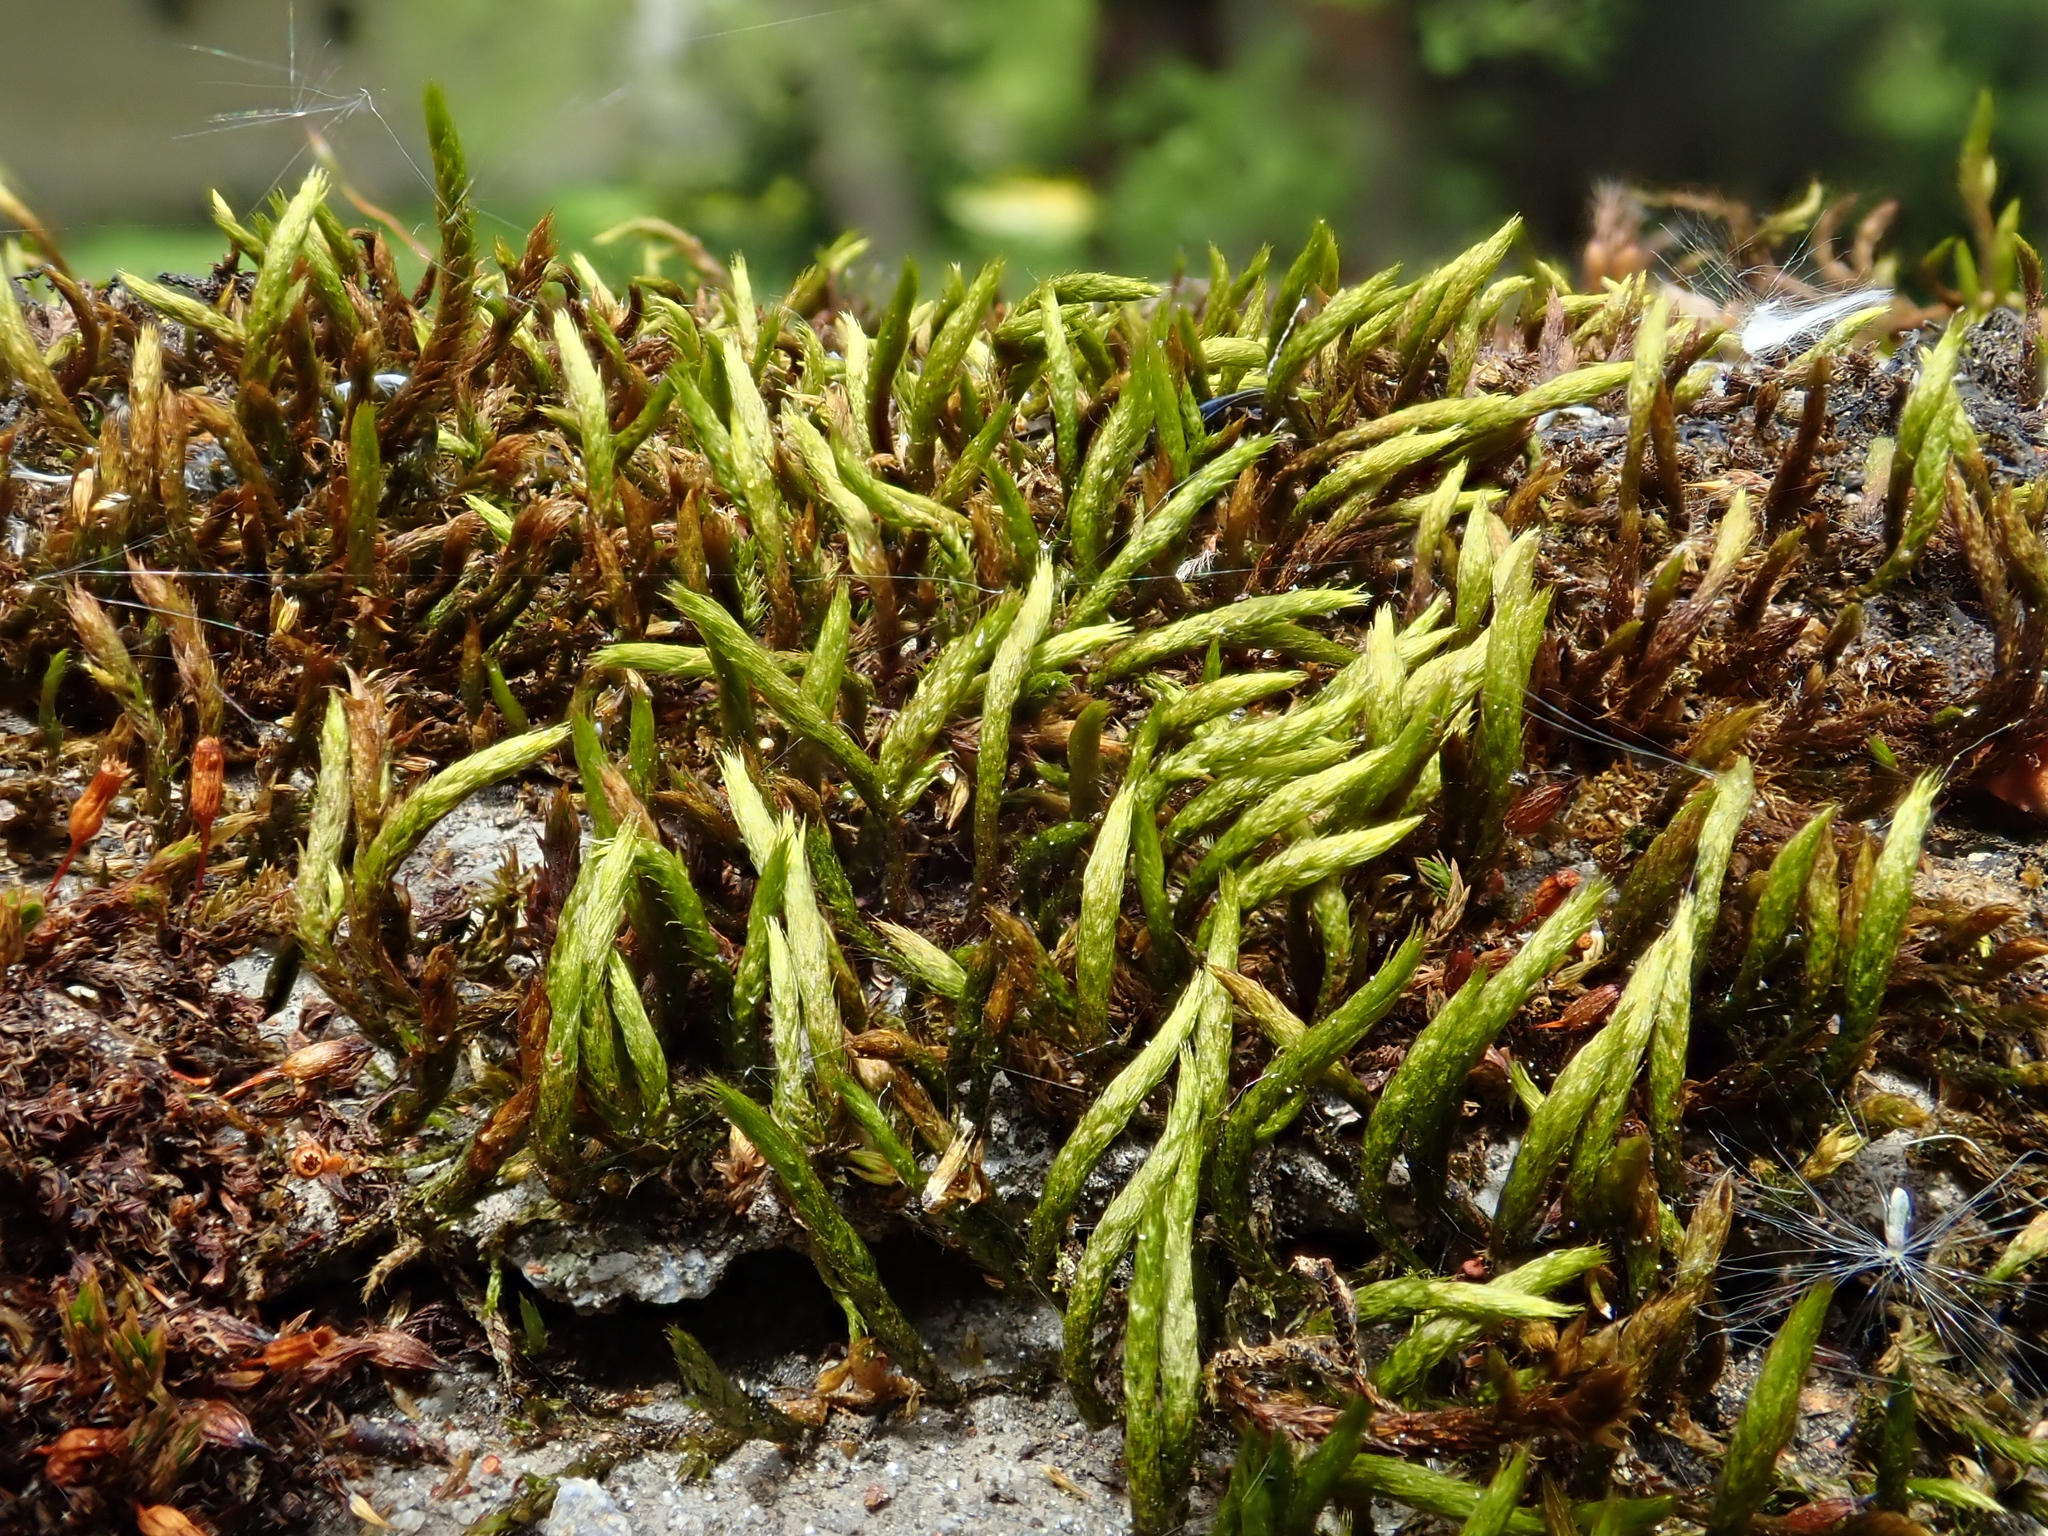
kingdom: Plantae
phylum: Bryophyta
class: Bryopsida
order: Hypnales
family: Leucodontaceae
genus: Leucodon
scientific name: Leucodon sciuroides
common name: Squirrel-tail moss
